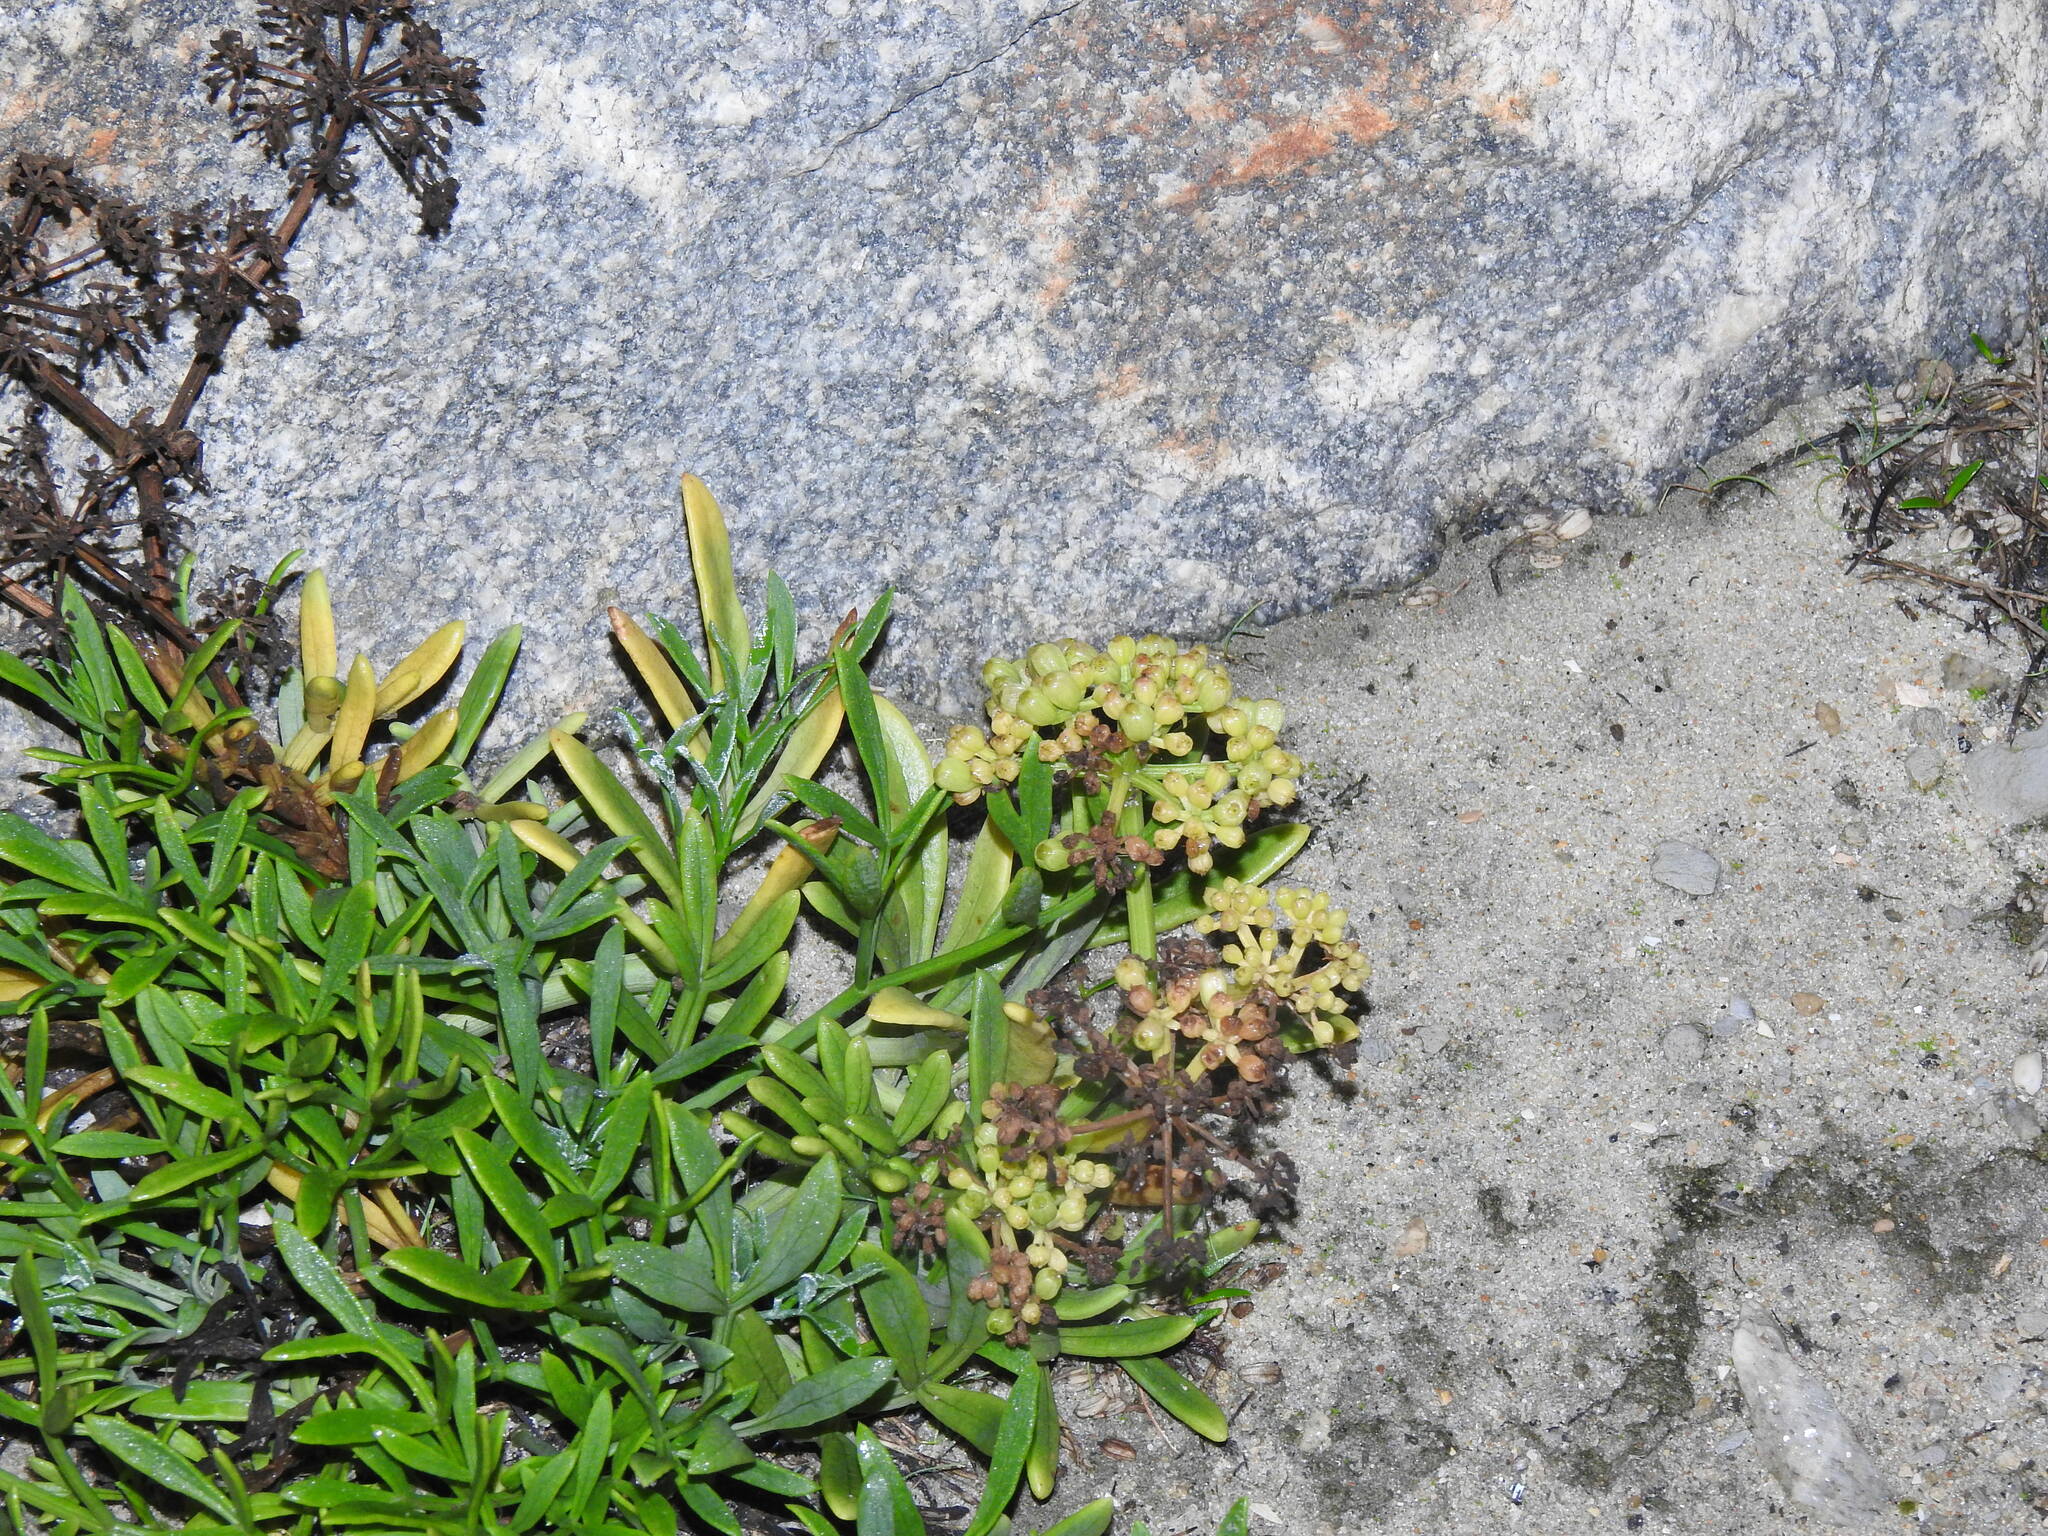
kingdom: Plantae
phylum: Tracheophyta
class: Magnoliopsida
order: Apiales
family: Apiaceae
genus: Crithmum
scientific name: Crithmum maritimum
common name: Rock samphire
